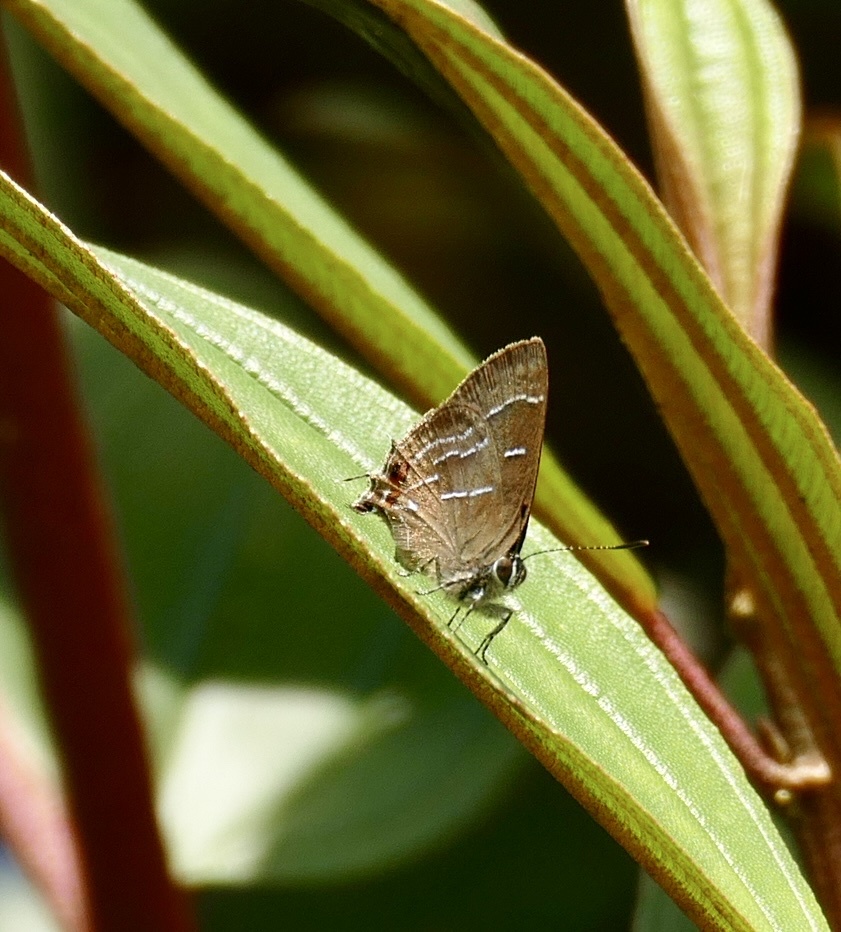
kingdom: Animalia
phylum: Arthropoda
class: Insecta
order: Lepidoptera
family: Lycaenidae
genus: Ocaria
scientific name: Ocaria aholiba
